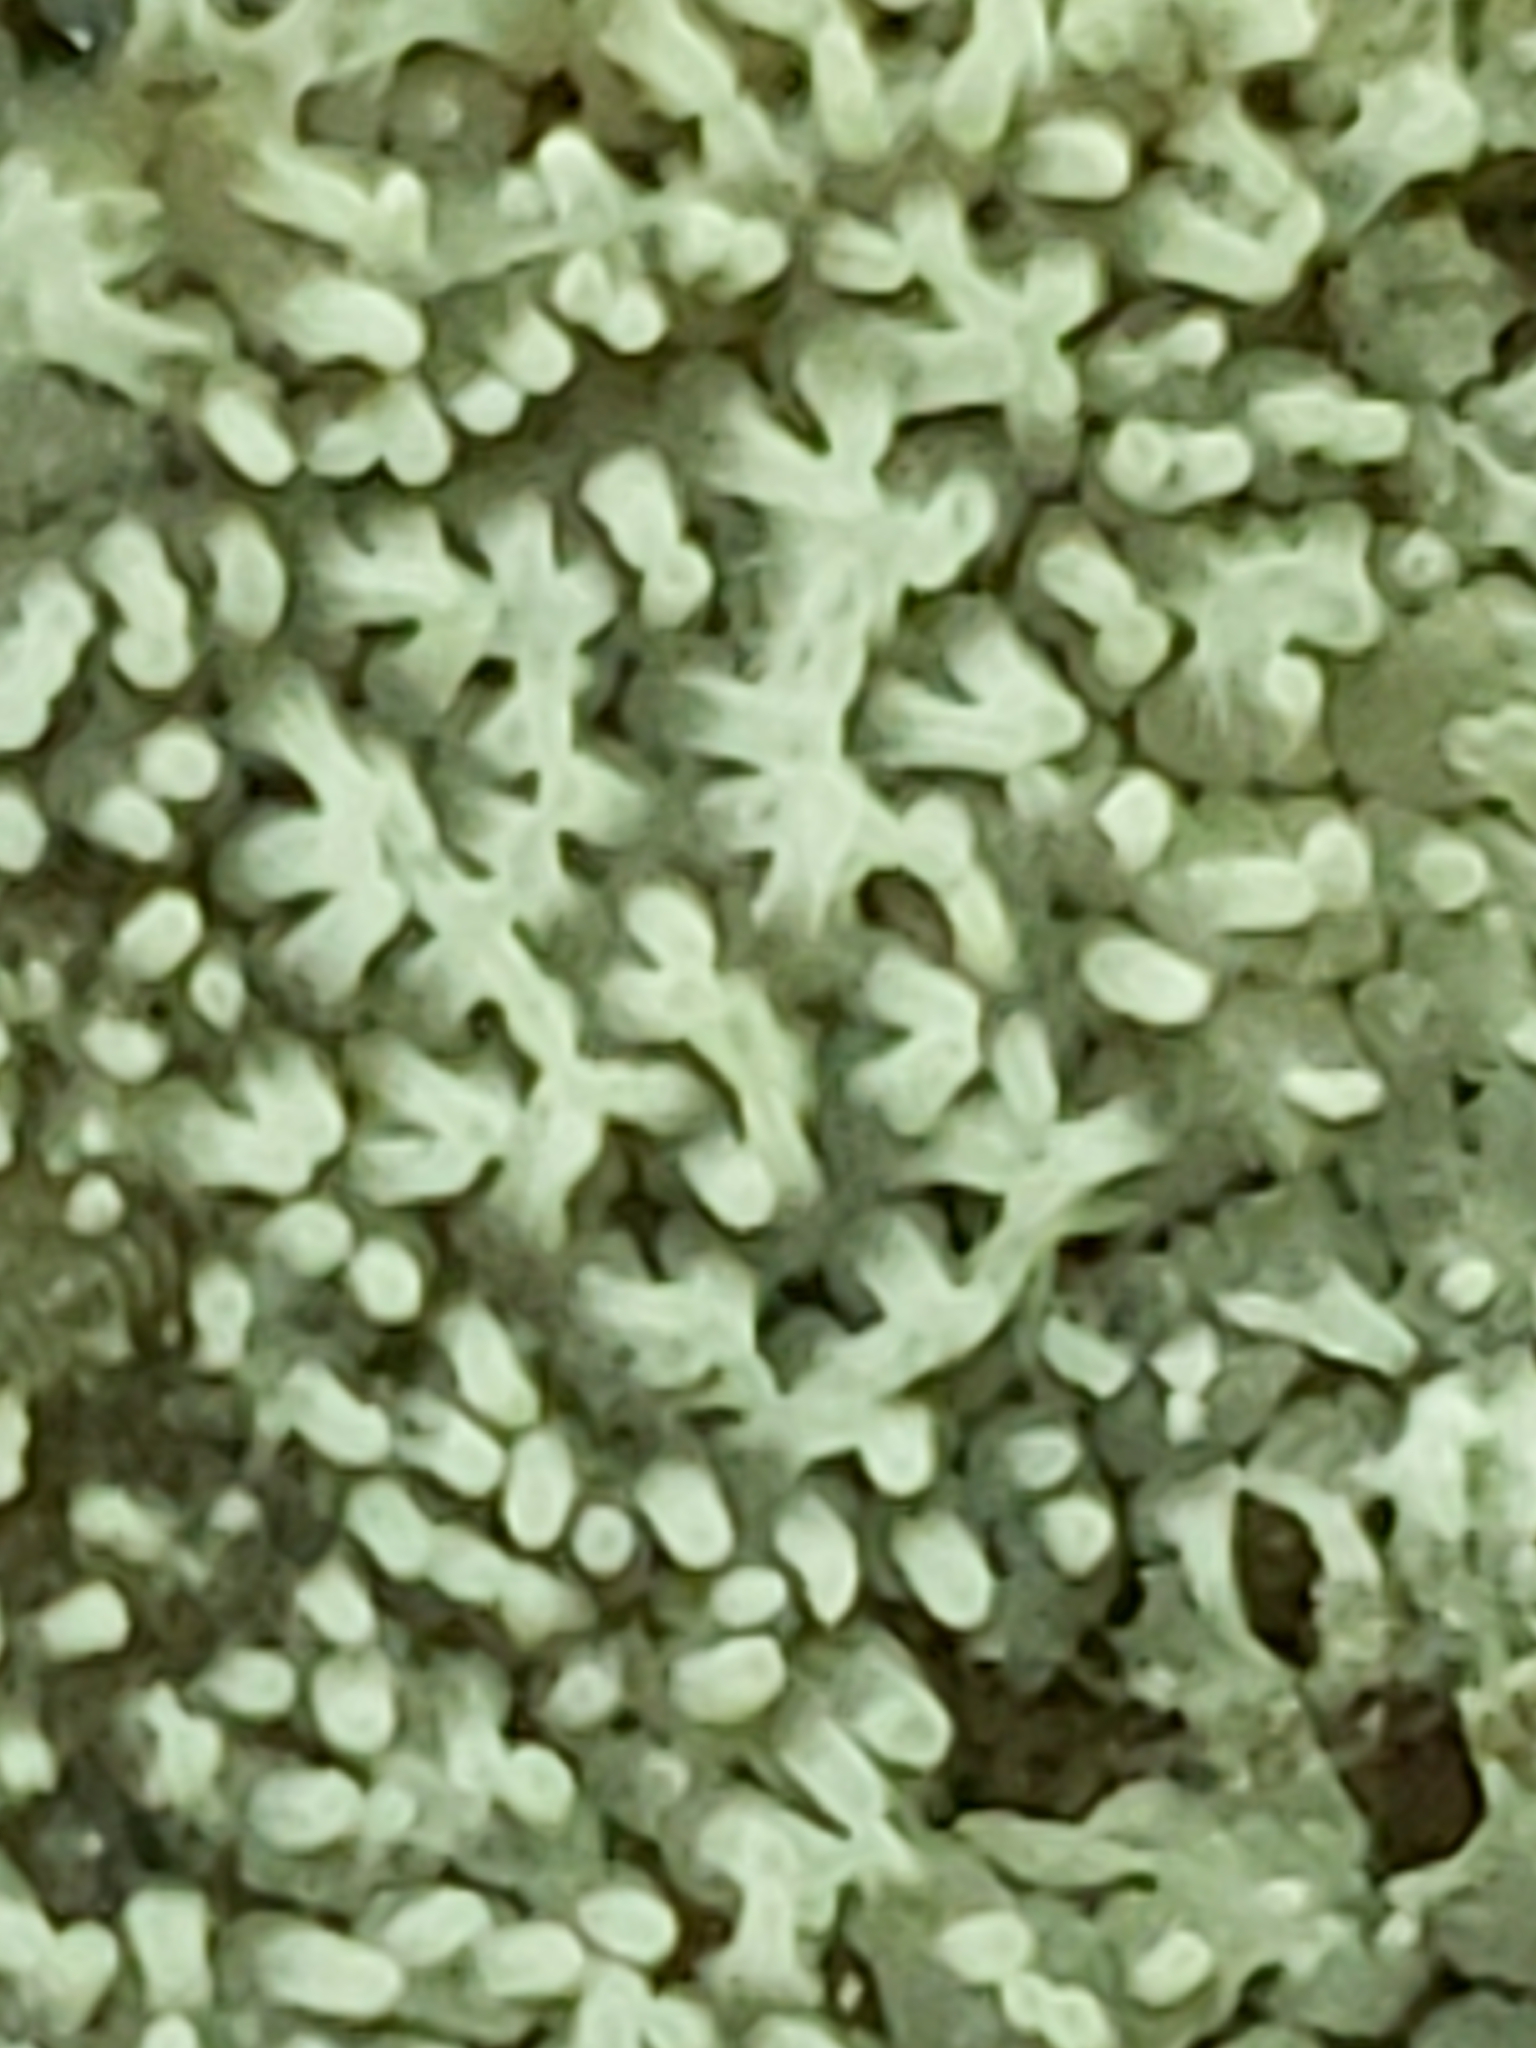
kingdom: Protozoa
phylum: Mycetozoa
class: Protosteliomycetes
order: Ceratiomyxales
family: Ceratiomyxaceae
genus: Ceratiomyxa
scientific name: Ceratiomyxa fruticulosa
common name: Honeycomb coral slime mold
